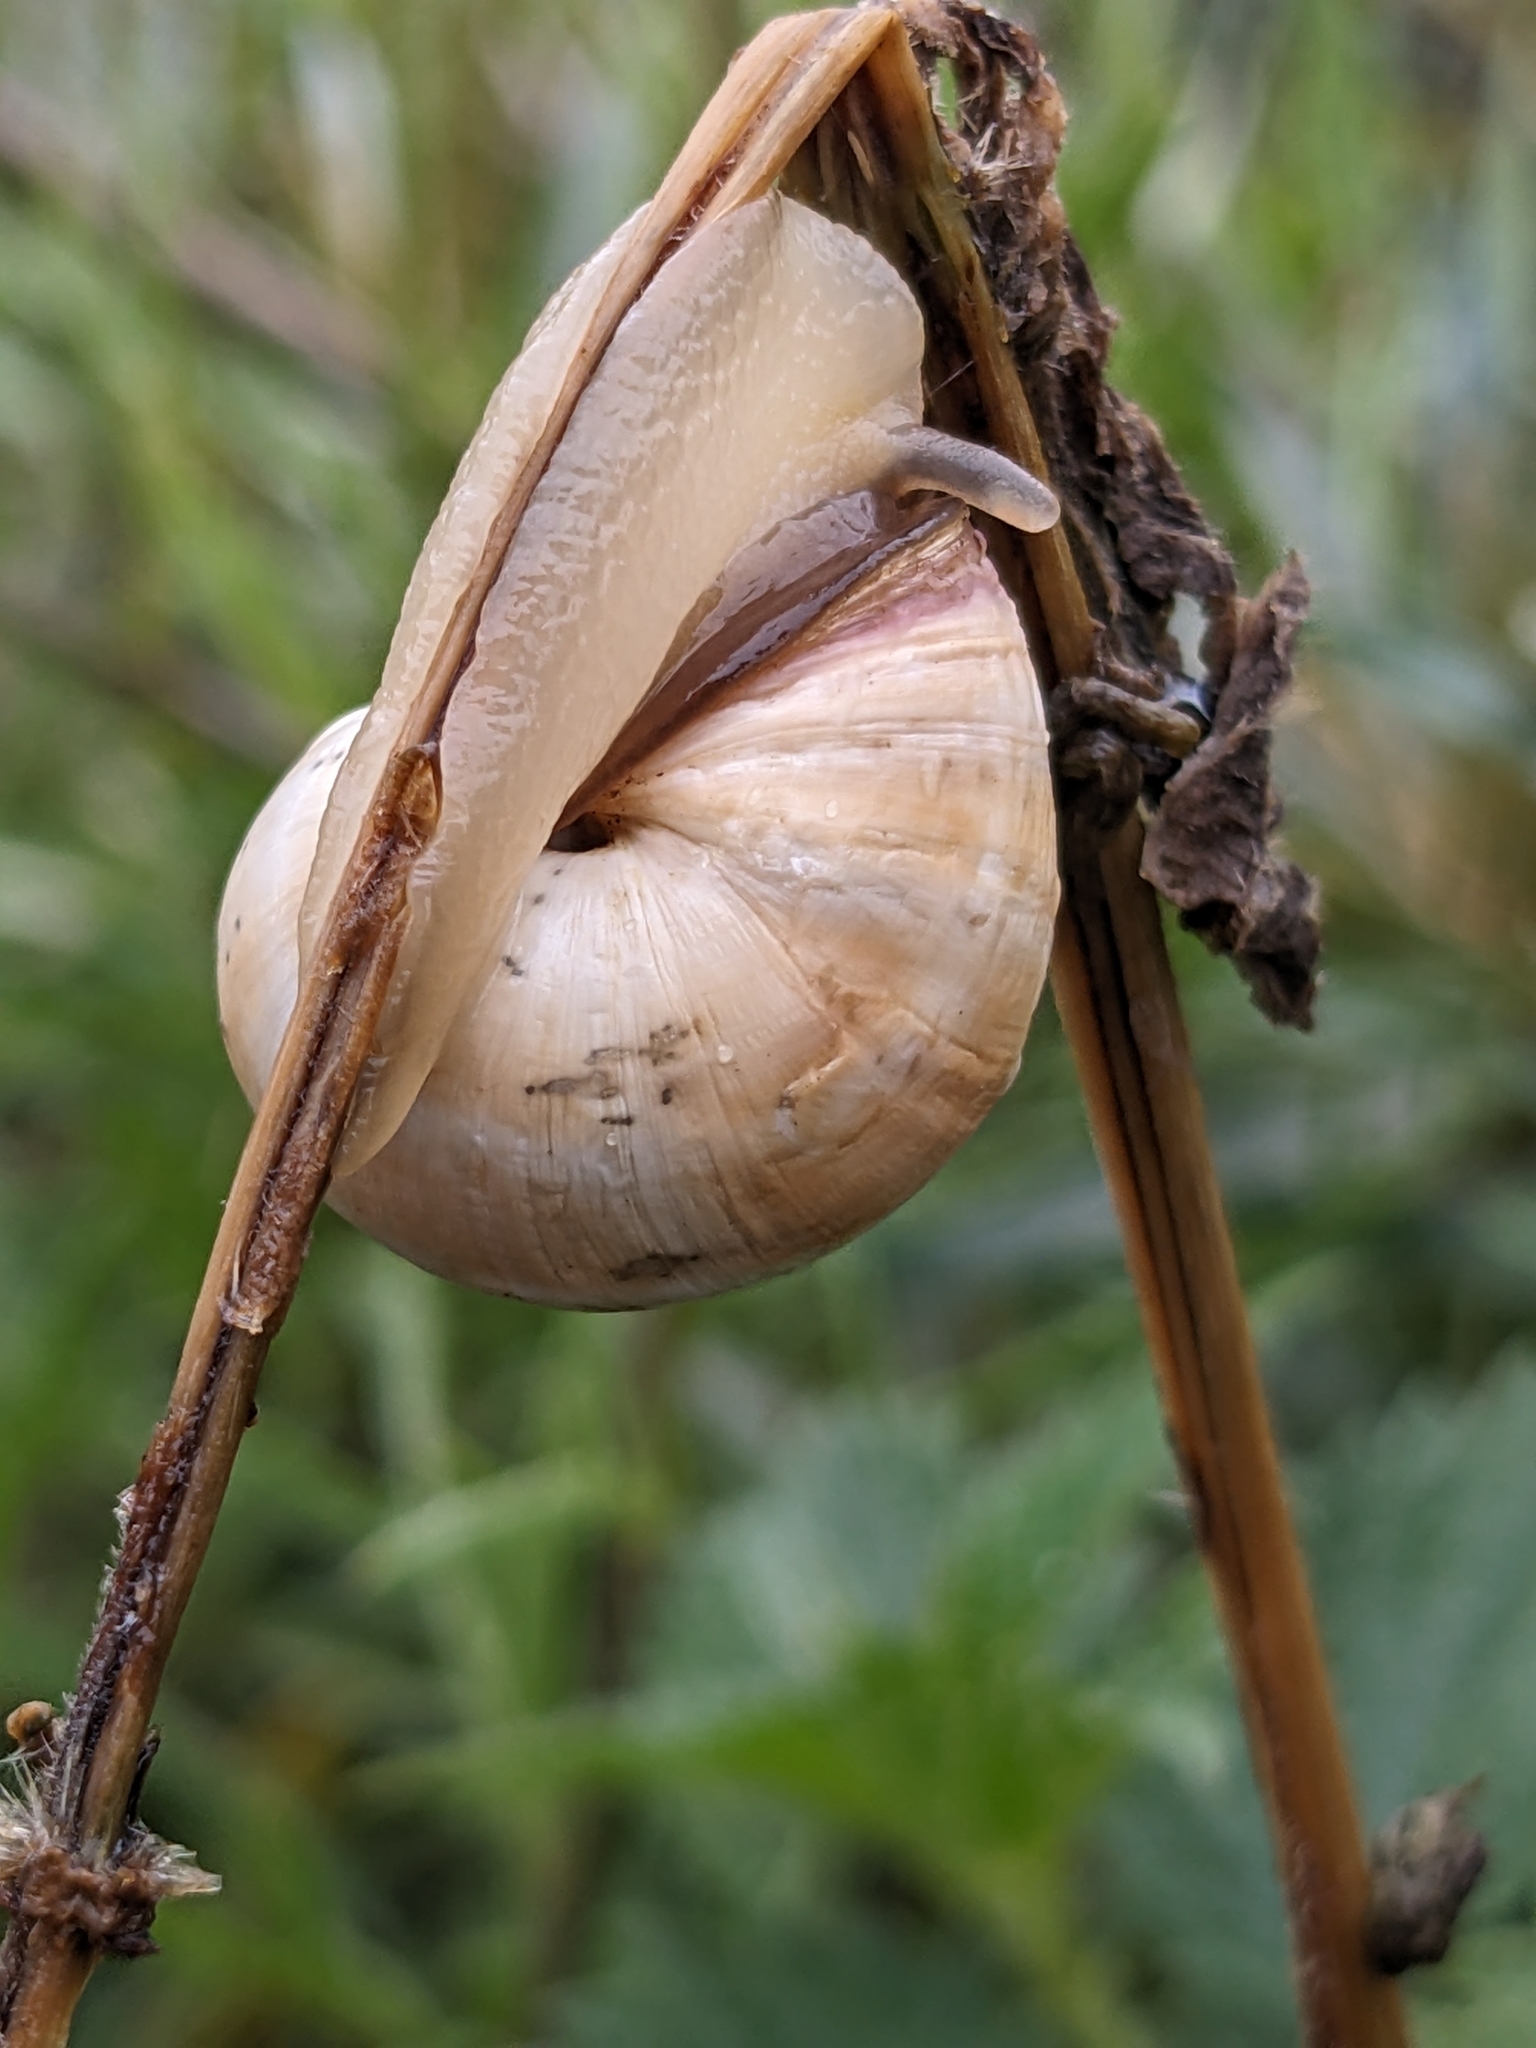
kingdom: Animalia
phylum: Mollusca
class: Gastropoda
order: Stylommatophora
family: Helicidae
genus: Theba
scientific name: Theba pisana
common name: White snail
